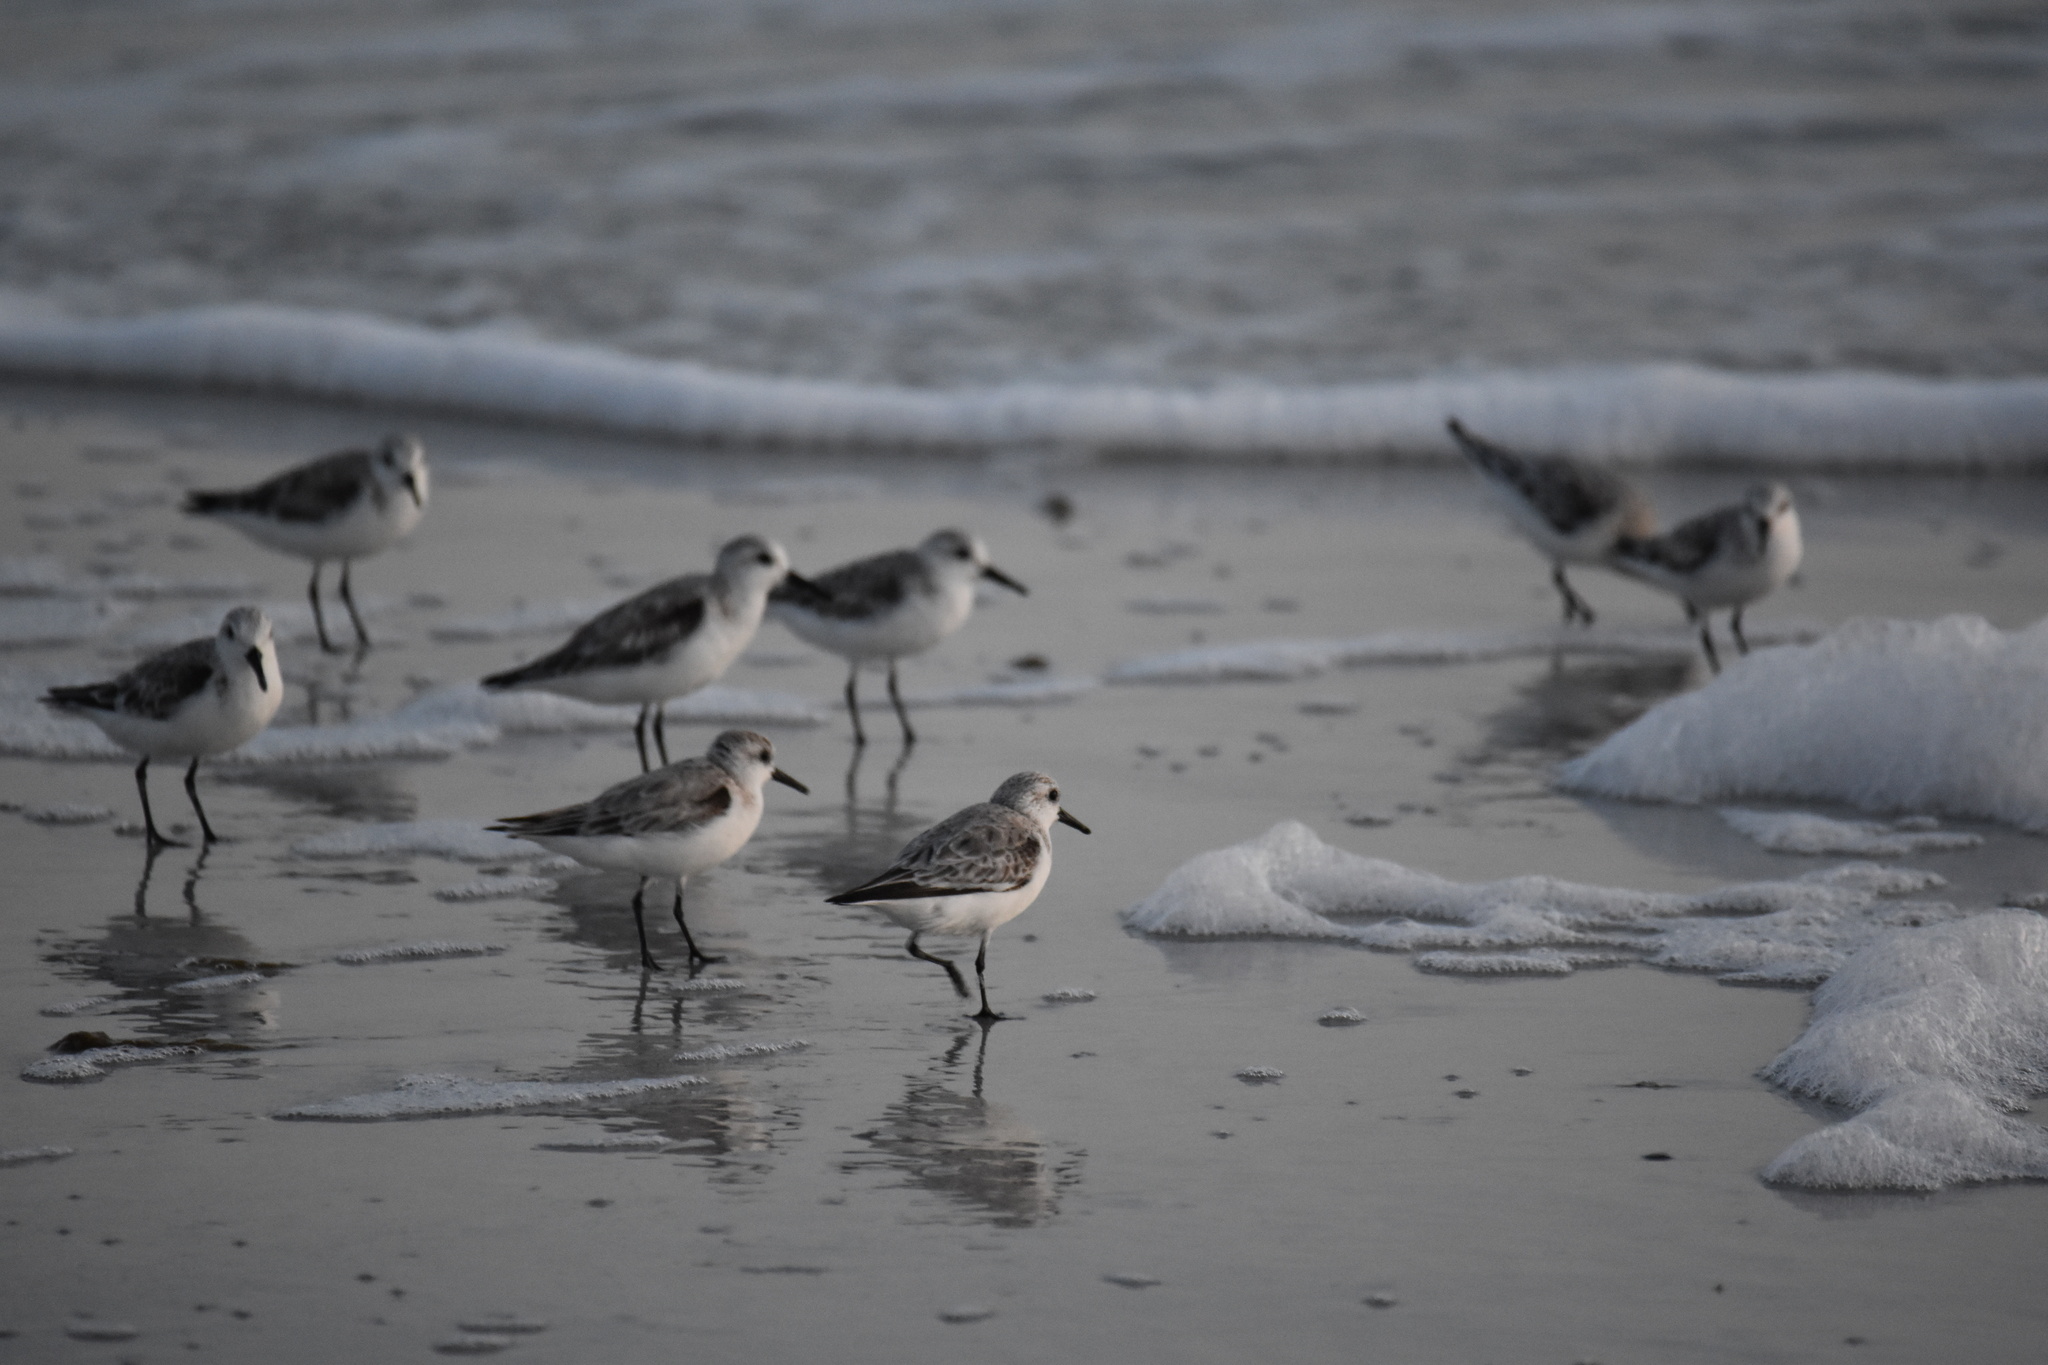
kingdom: Animalia
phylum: Chordata
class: Aves
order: Charadriiformes
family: Scolopacidae
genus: Calidris
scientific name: Calidris alba
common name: Sanderling
